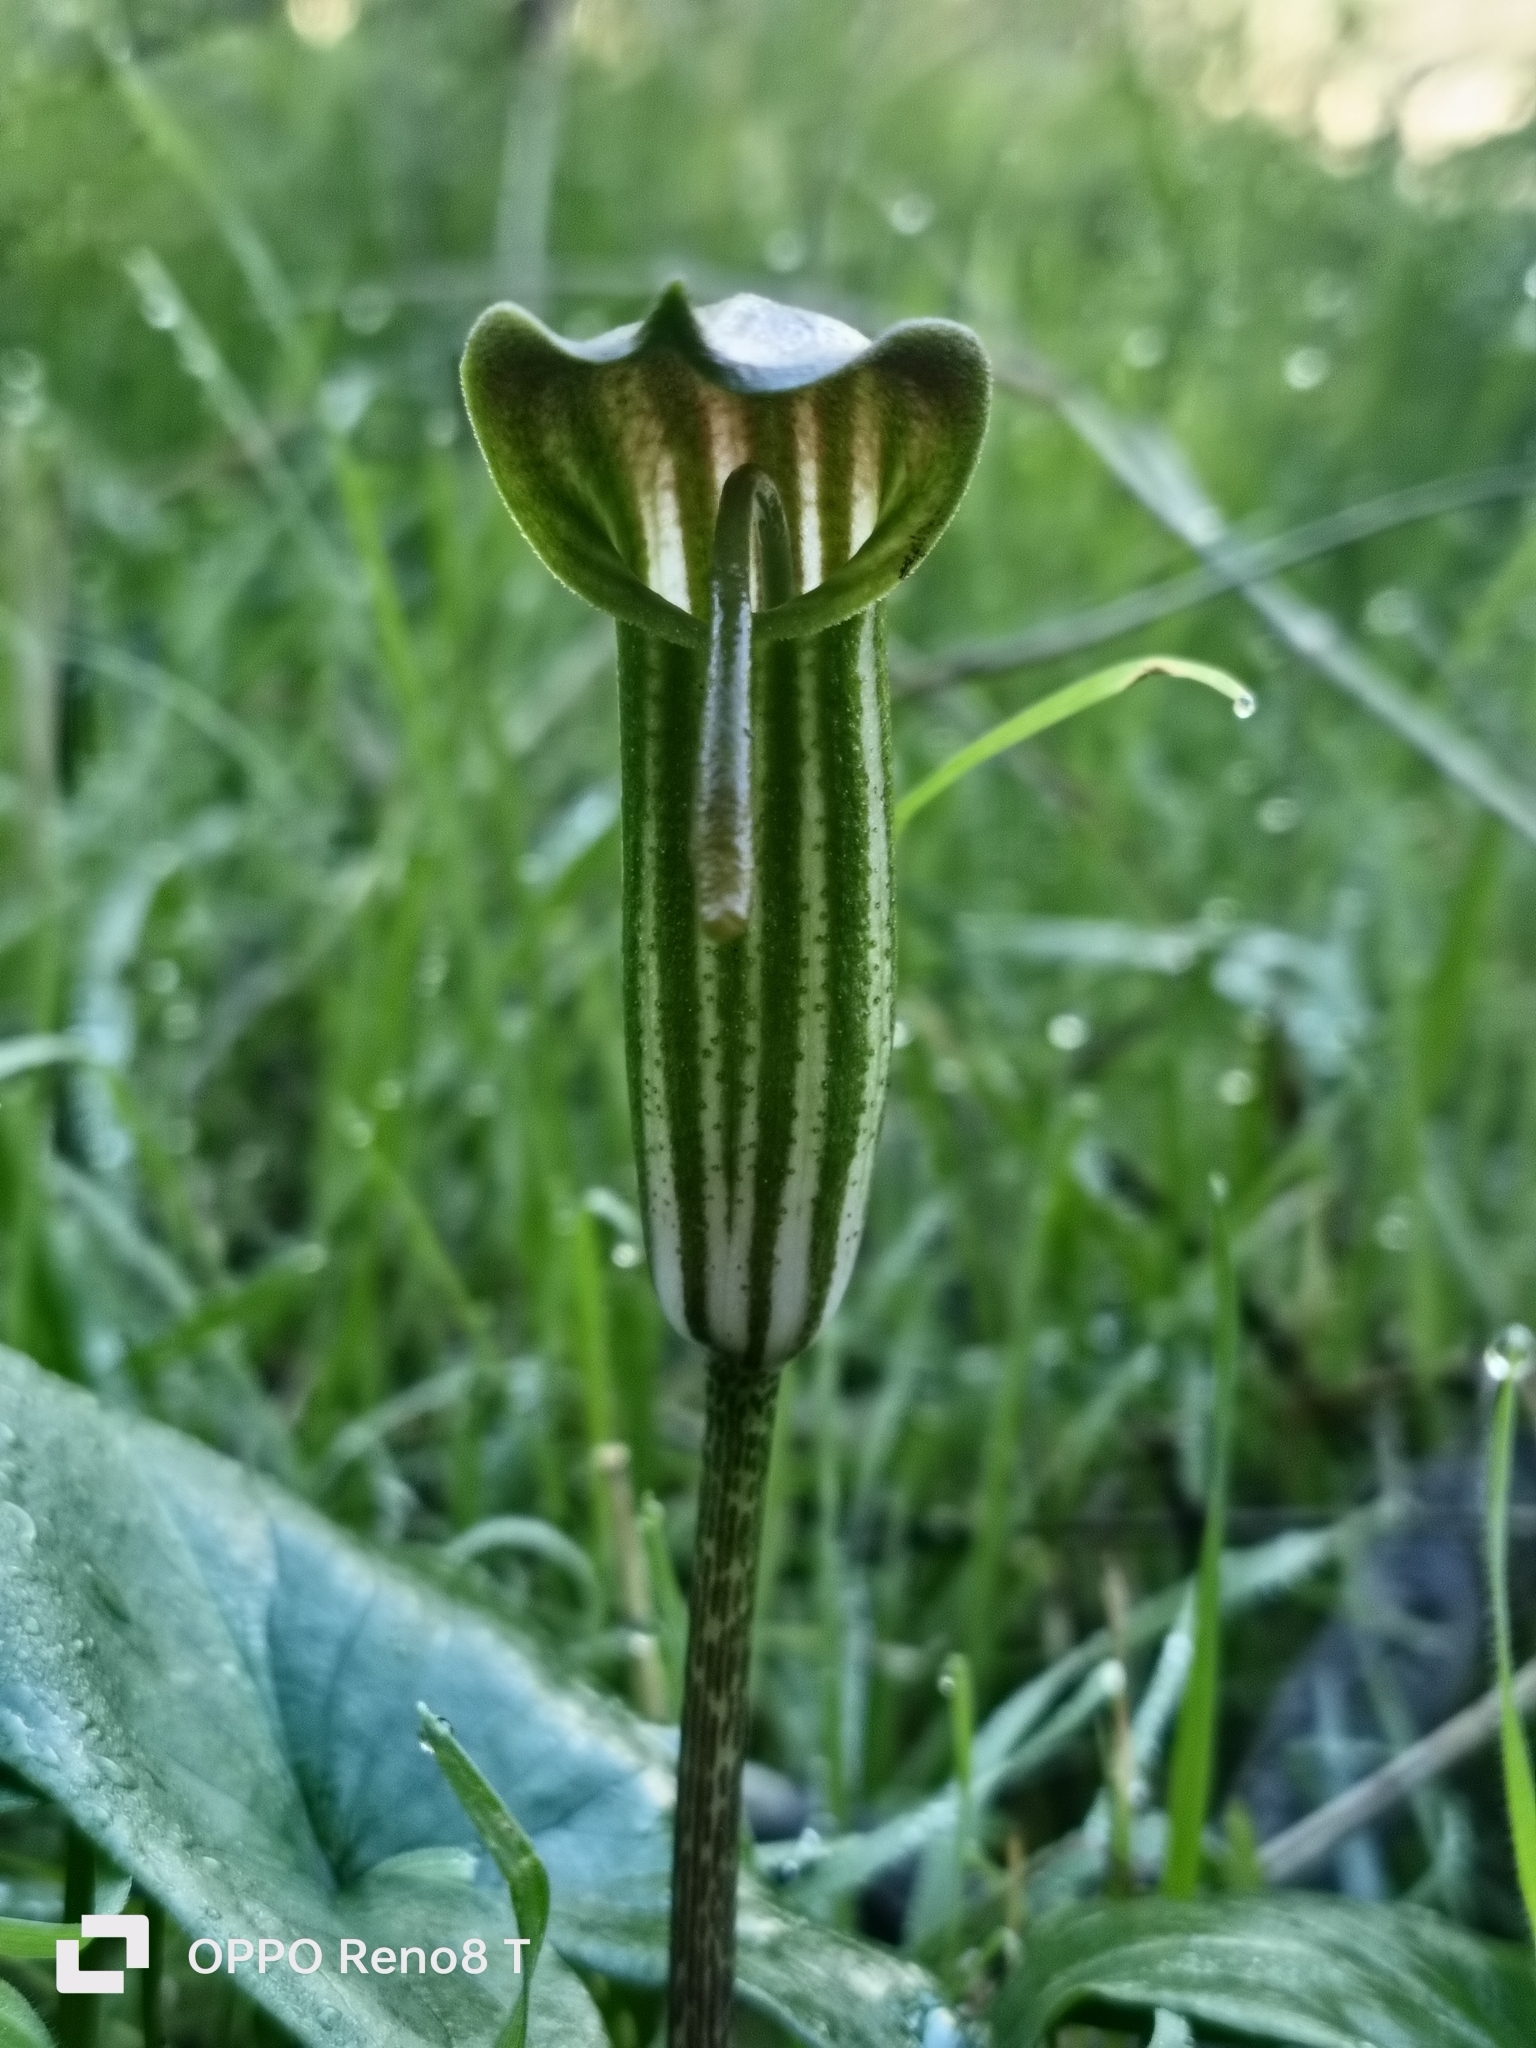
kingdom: Plantae
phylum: Tracheophyta
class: Liliopsida
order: Alismatales
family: Araceae
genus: Arisarum
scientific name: Arisarum vulgare
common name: Common arisarum
